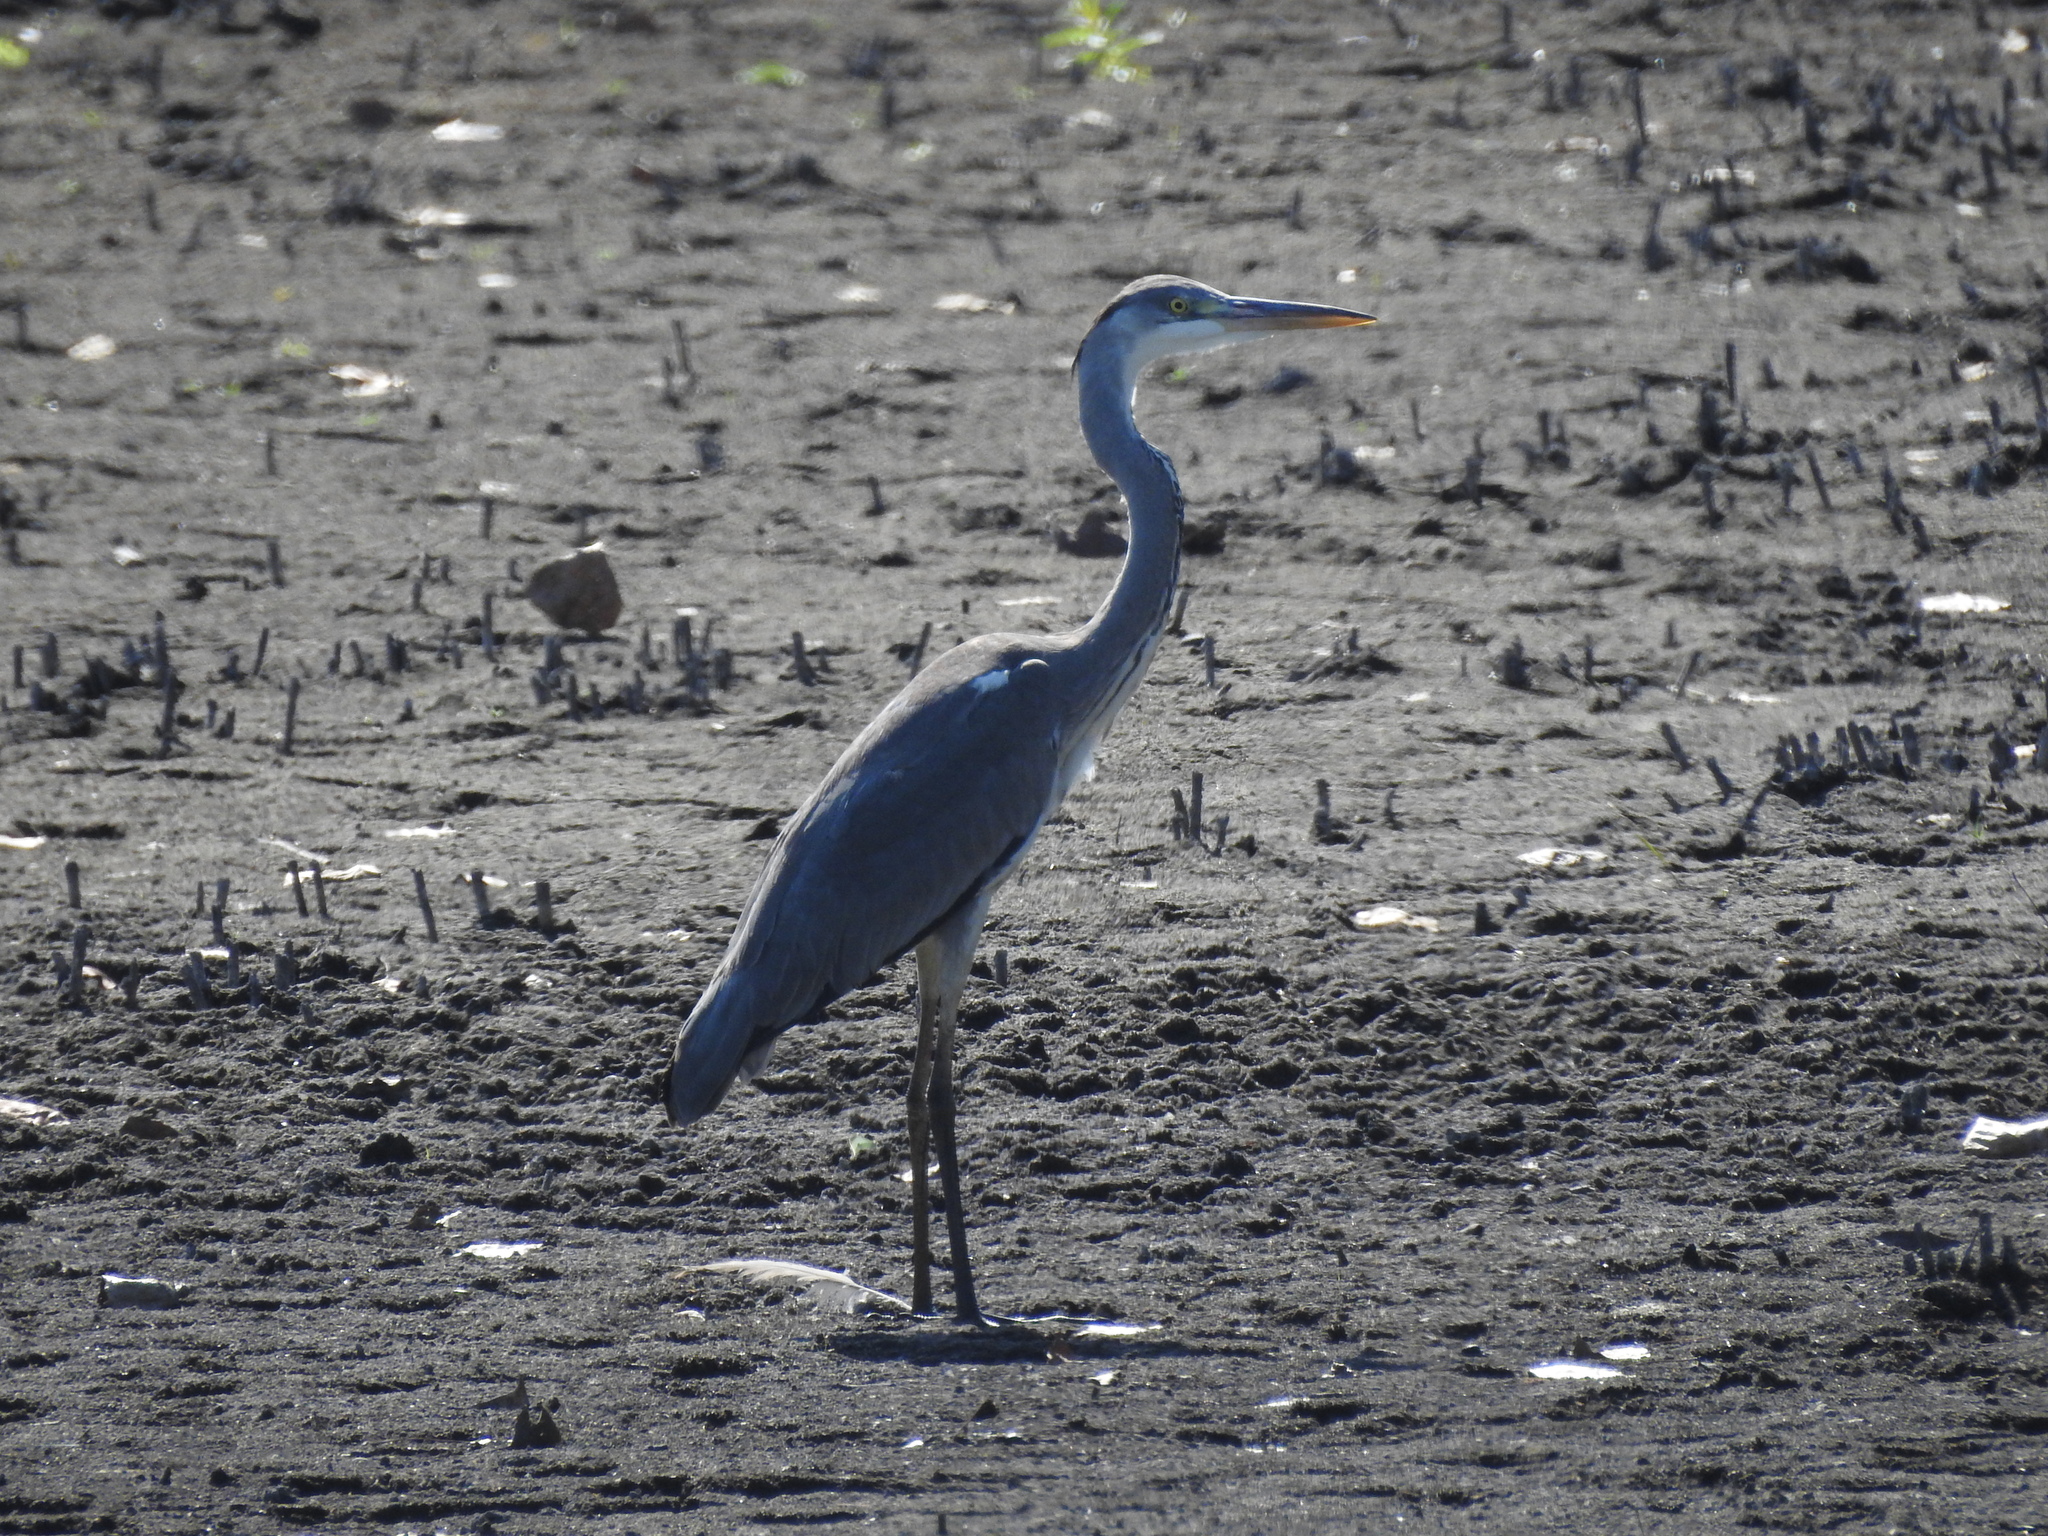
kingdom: Animalia
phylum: Chordata
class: Aves
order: Pelecaniformes
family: Ardeidae
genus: Ardea
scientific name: Ardea cinerea
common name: Grey heron
